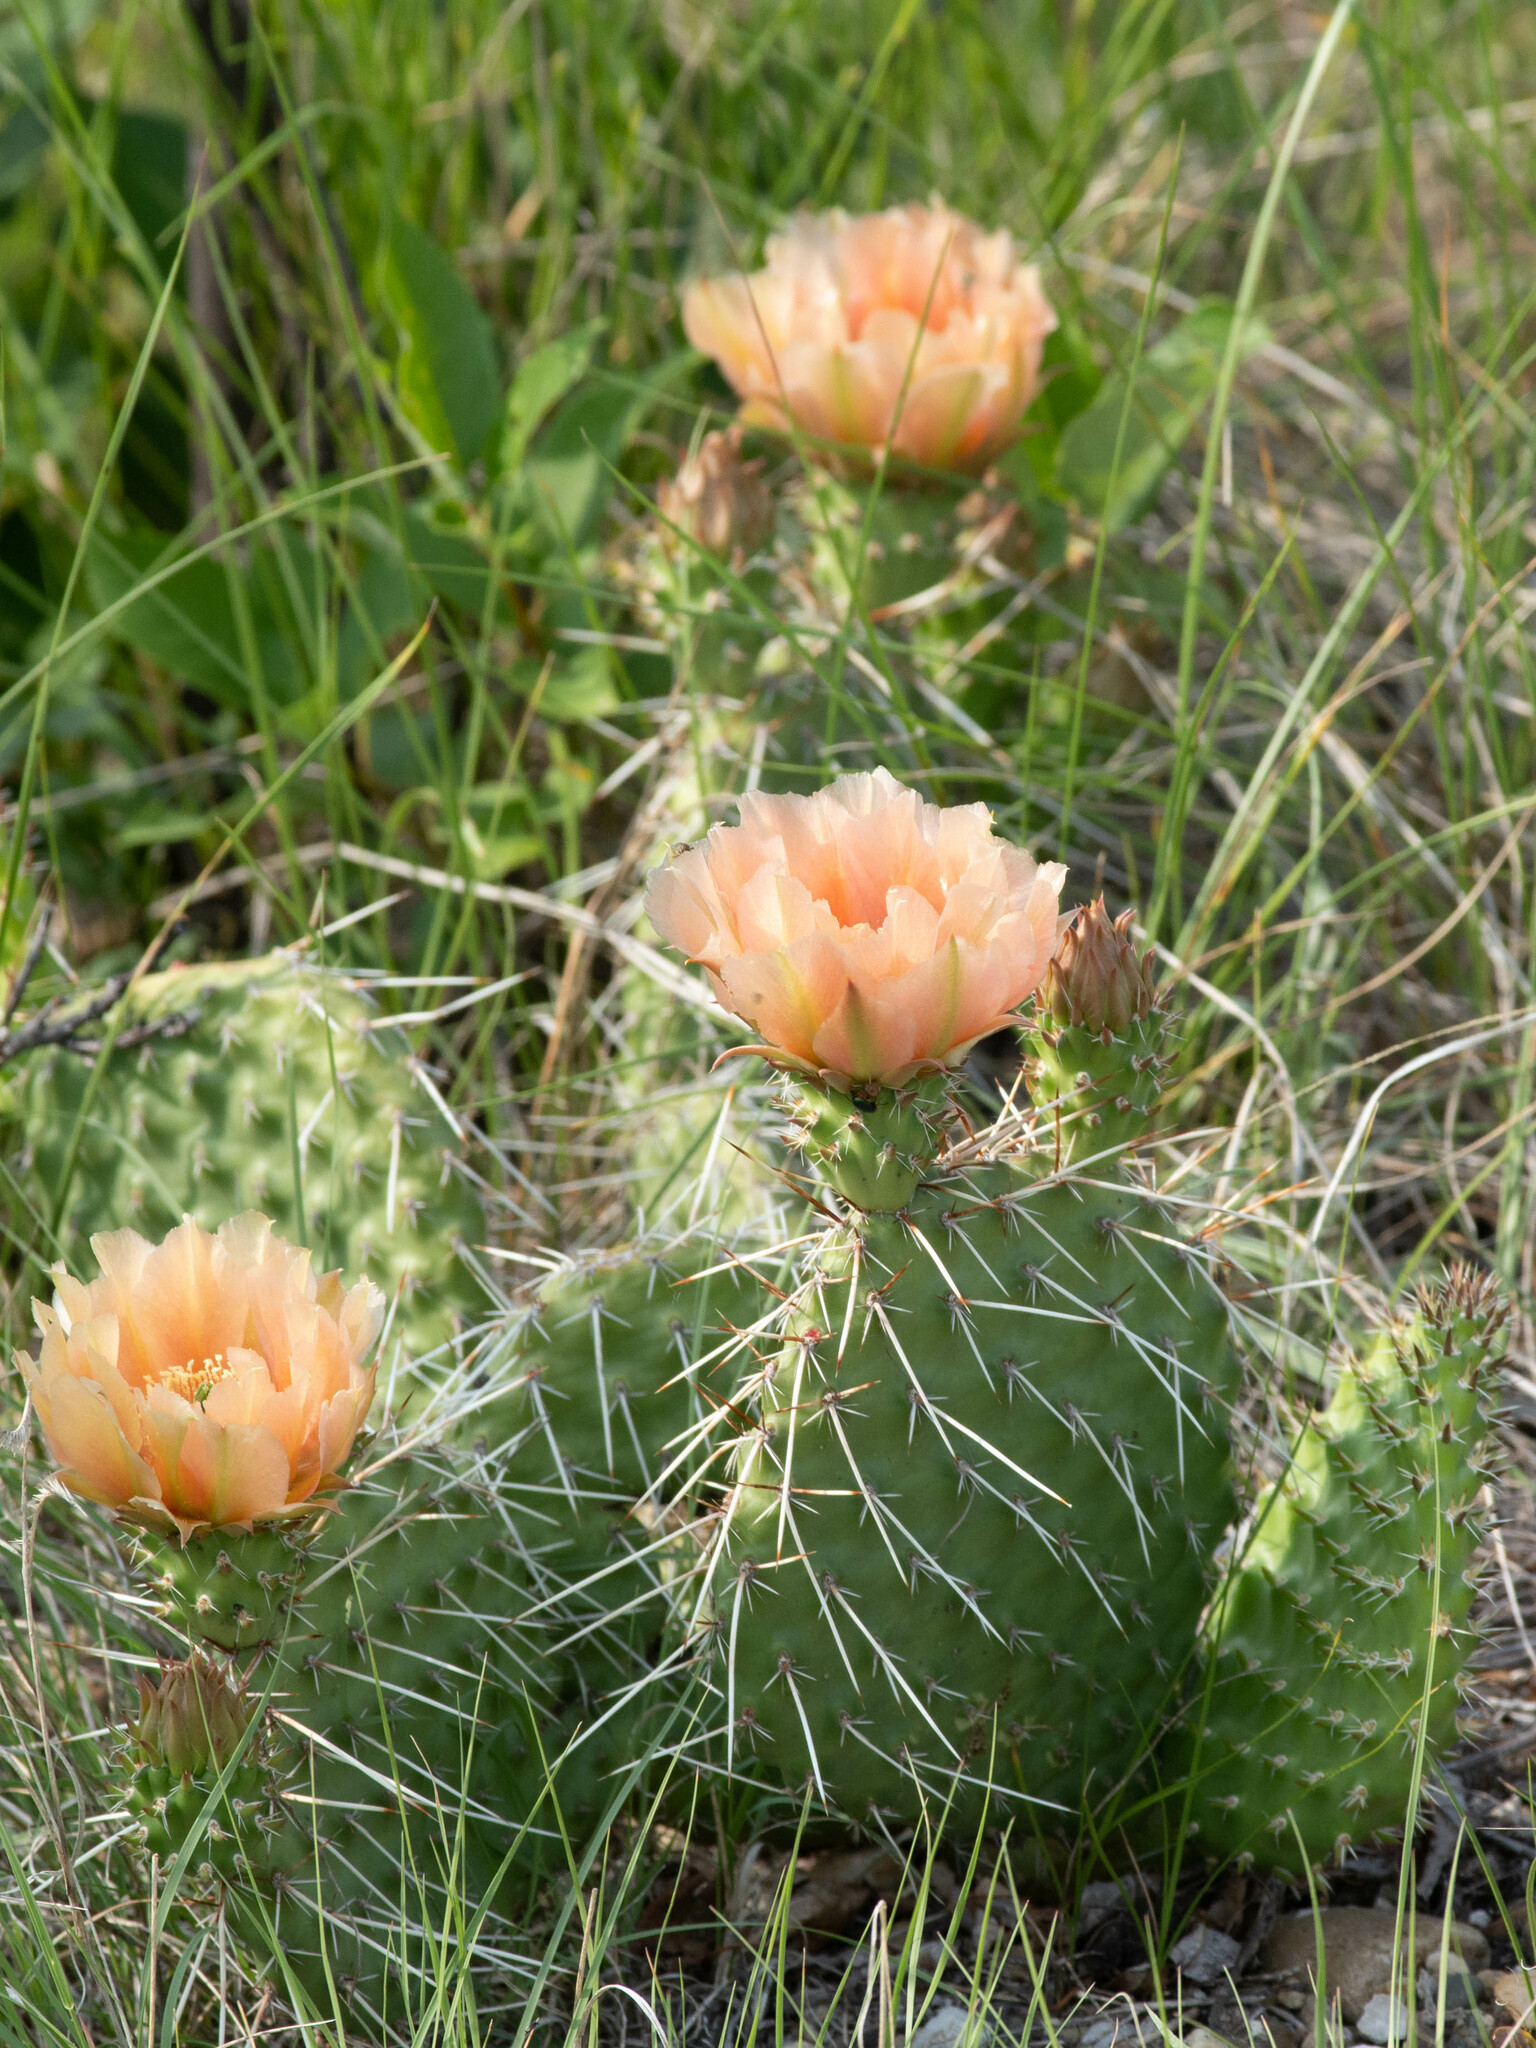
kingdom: Plantae
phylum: Tracheophyta
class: Magnoliopsida
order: Caryophyllales
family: Cactaceae
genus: Opuntia
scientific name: Opuntia polyacantha
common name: Plains prickly-pear
